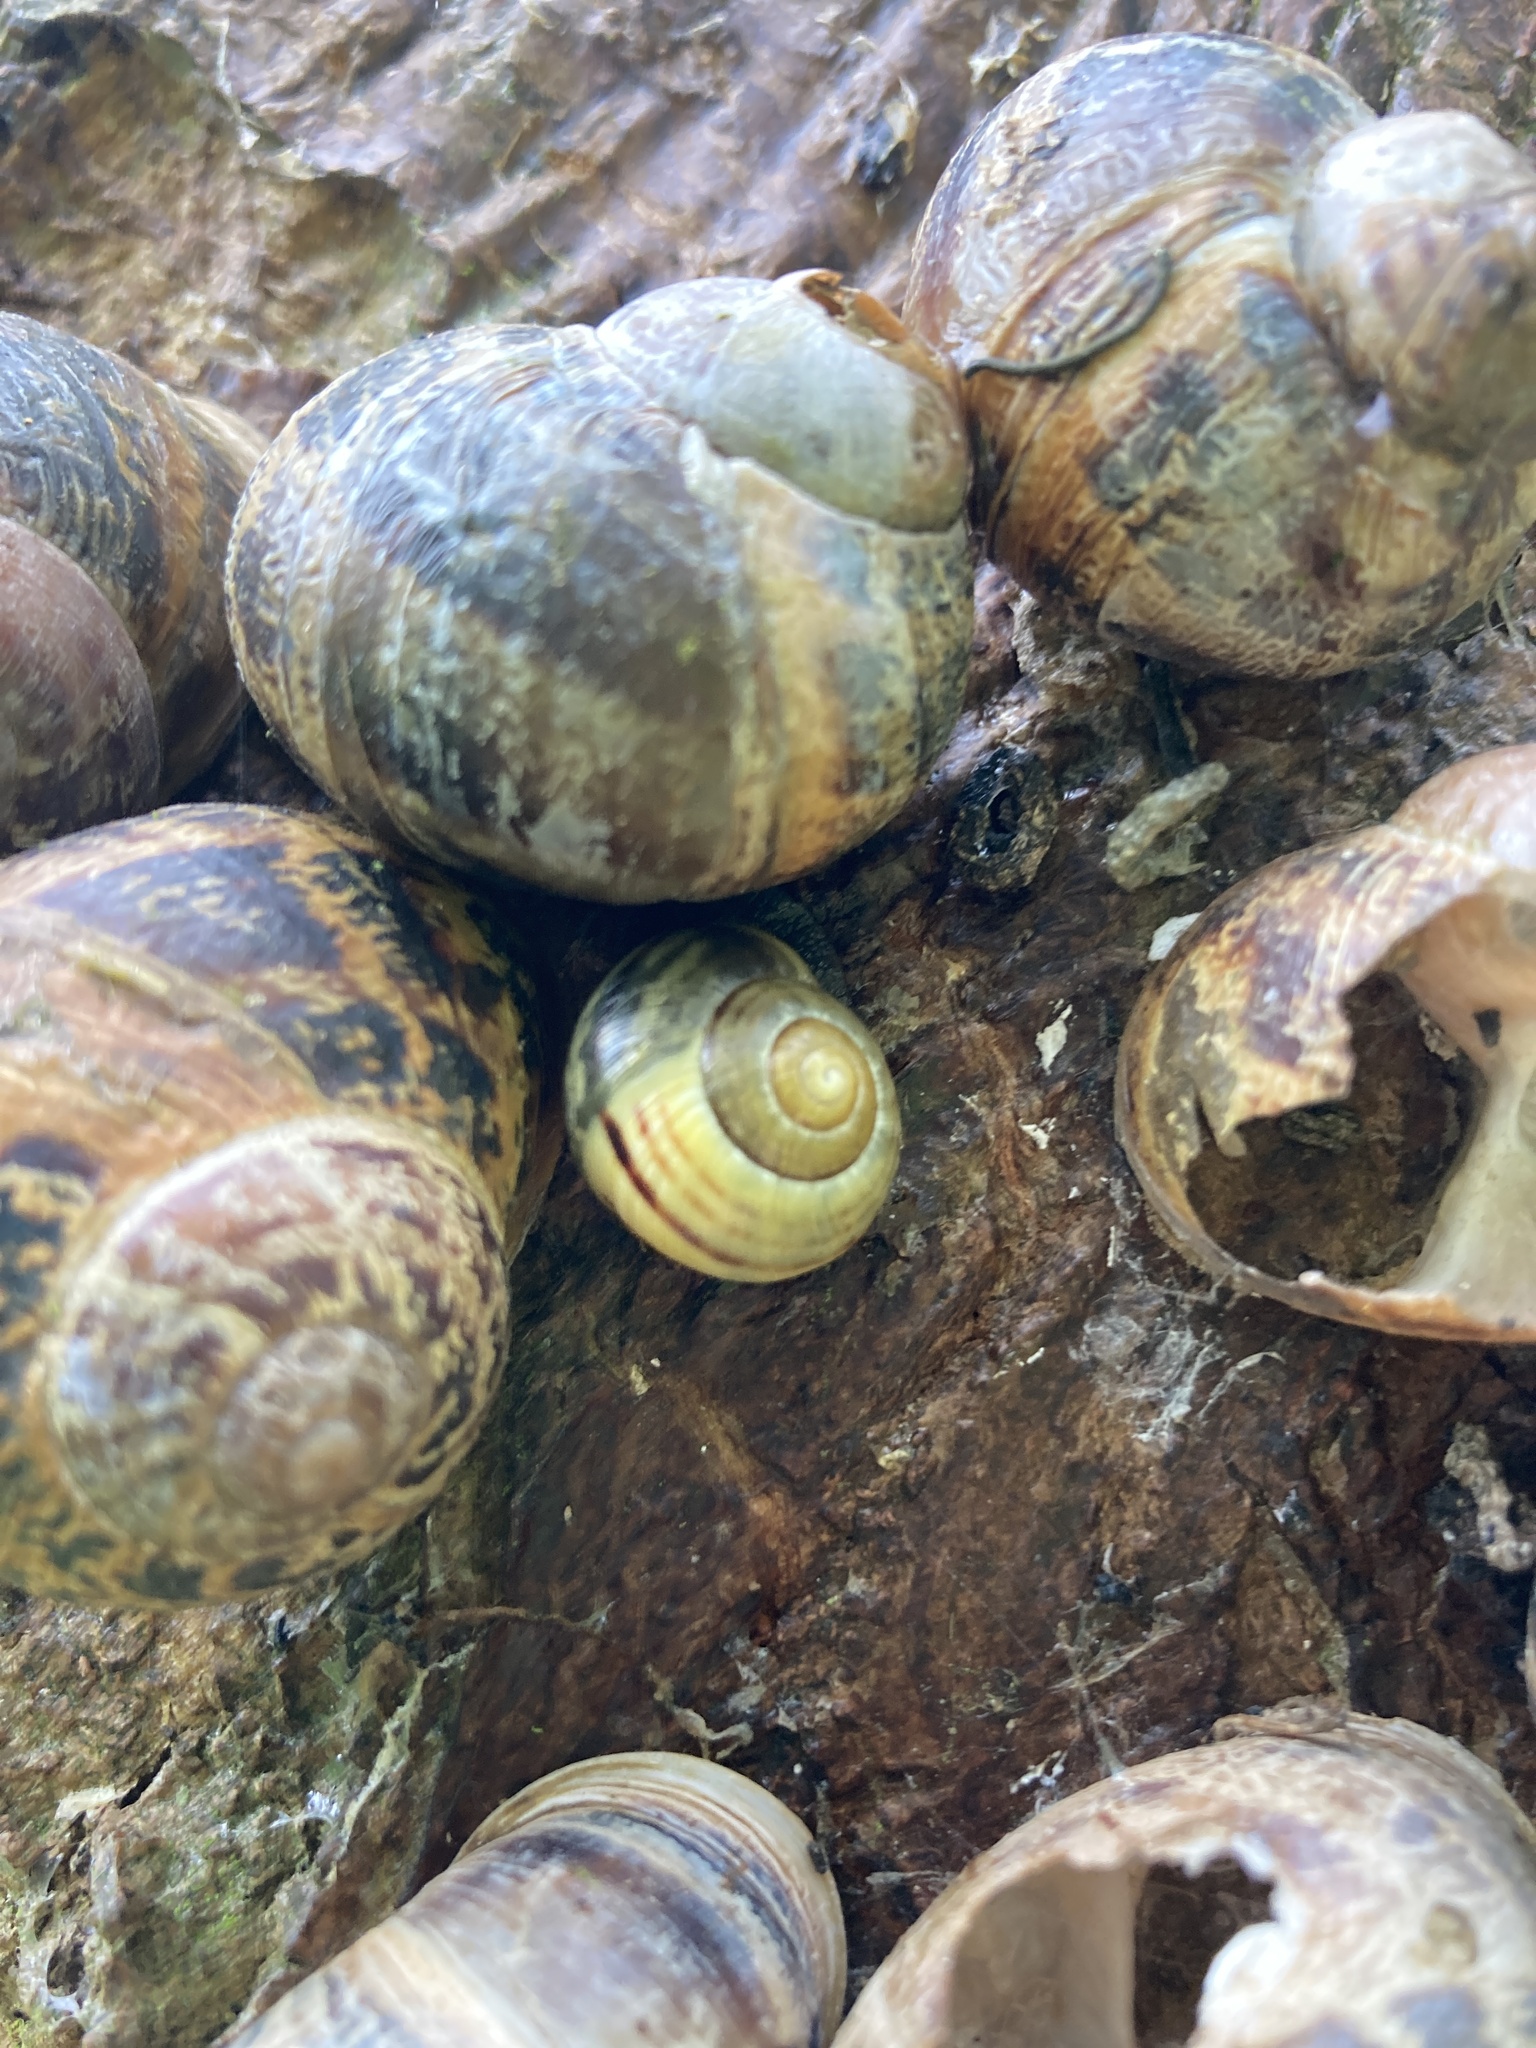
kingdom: Animalia
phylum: Mollusca
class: Gastropoda
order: Stylommatophora
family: Helicidae
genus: Cepaea
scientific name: Cepaea nemoralis
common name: Grovesnail
